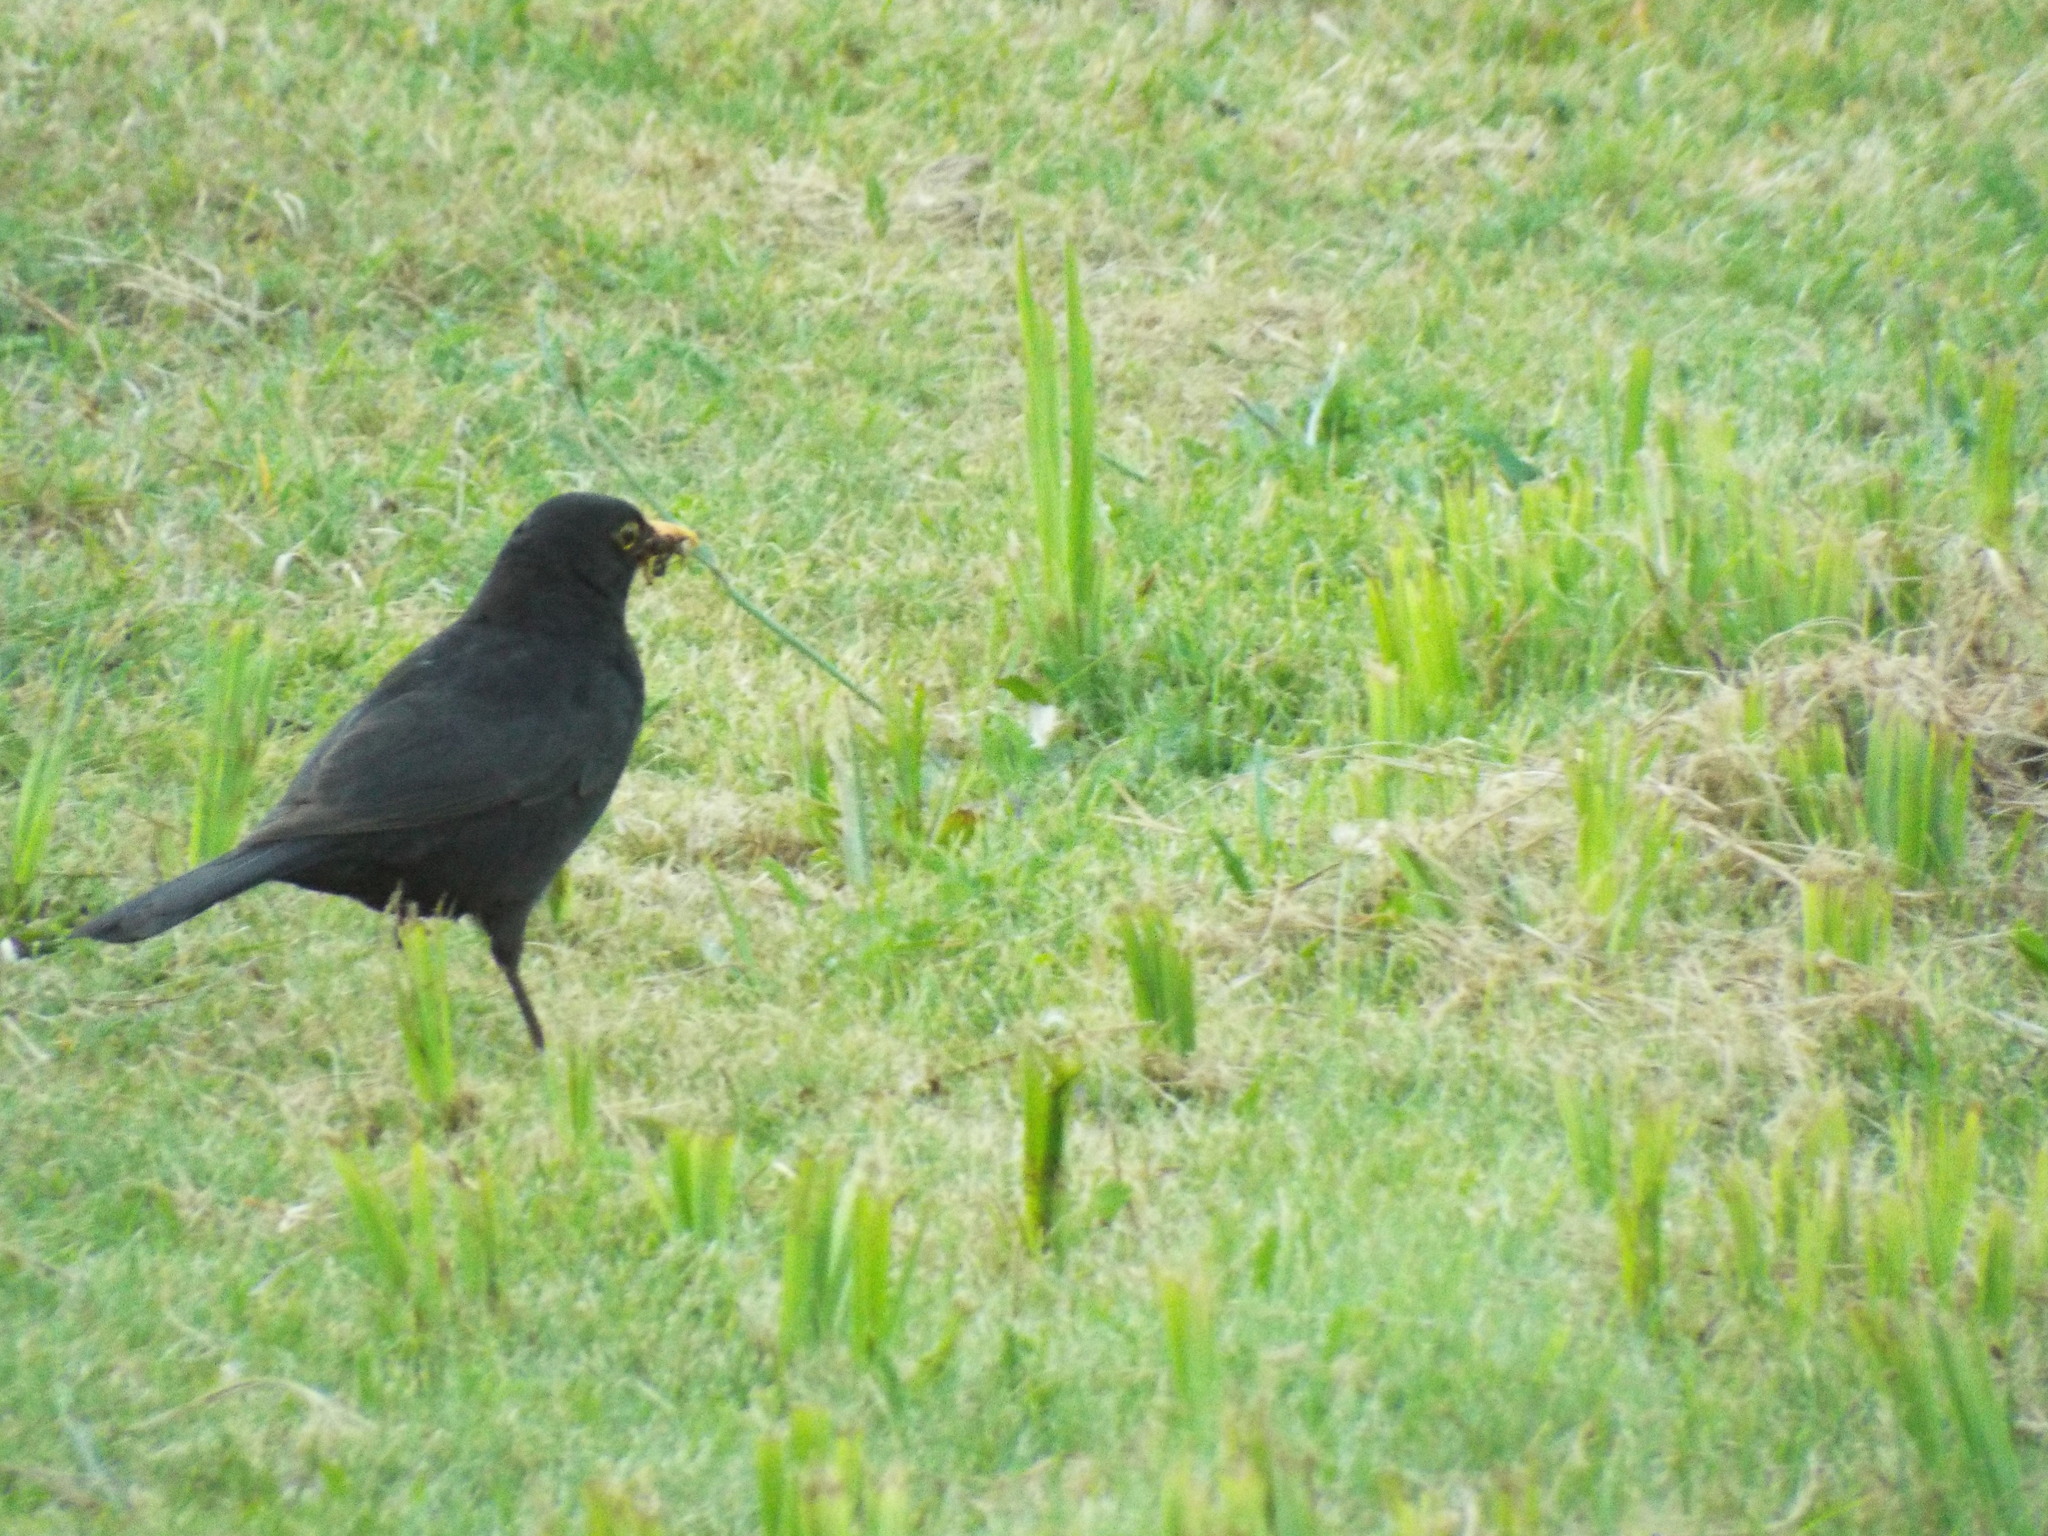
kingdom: Animalia
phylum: Chordata
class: Aves
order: Passeriformes
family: Turdidae
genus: Turdus
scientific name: Turdus merula
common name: Common blackbird
